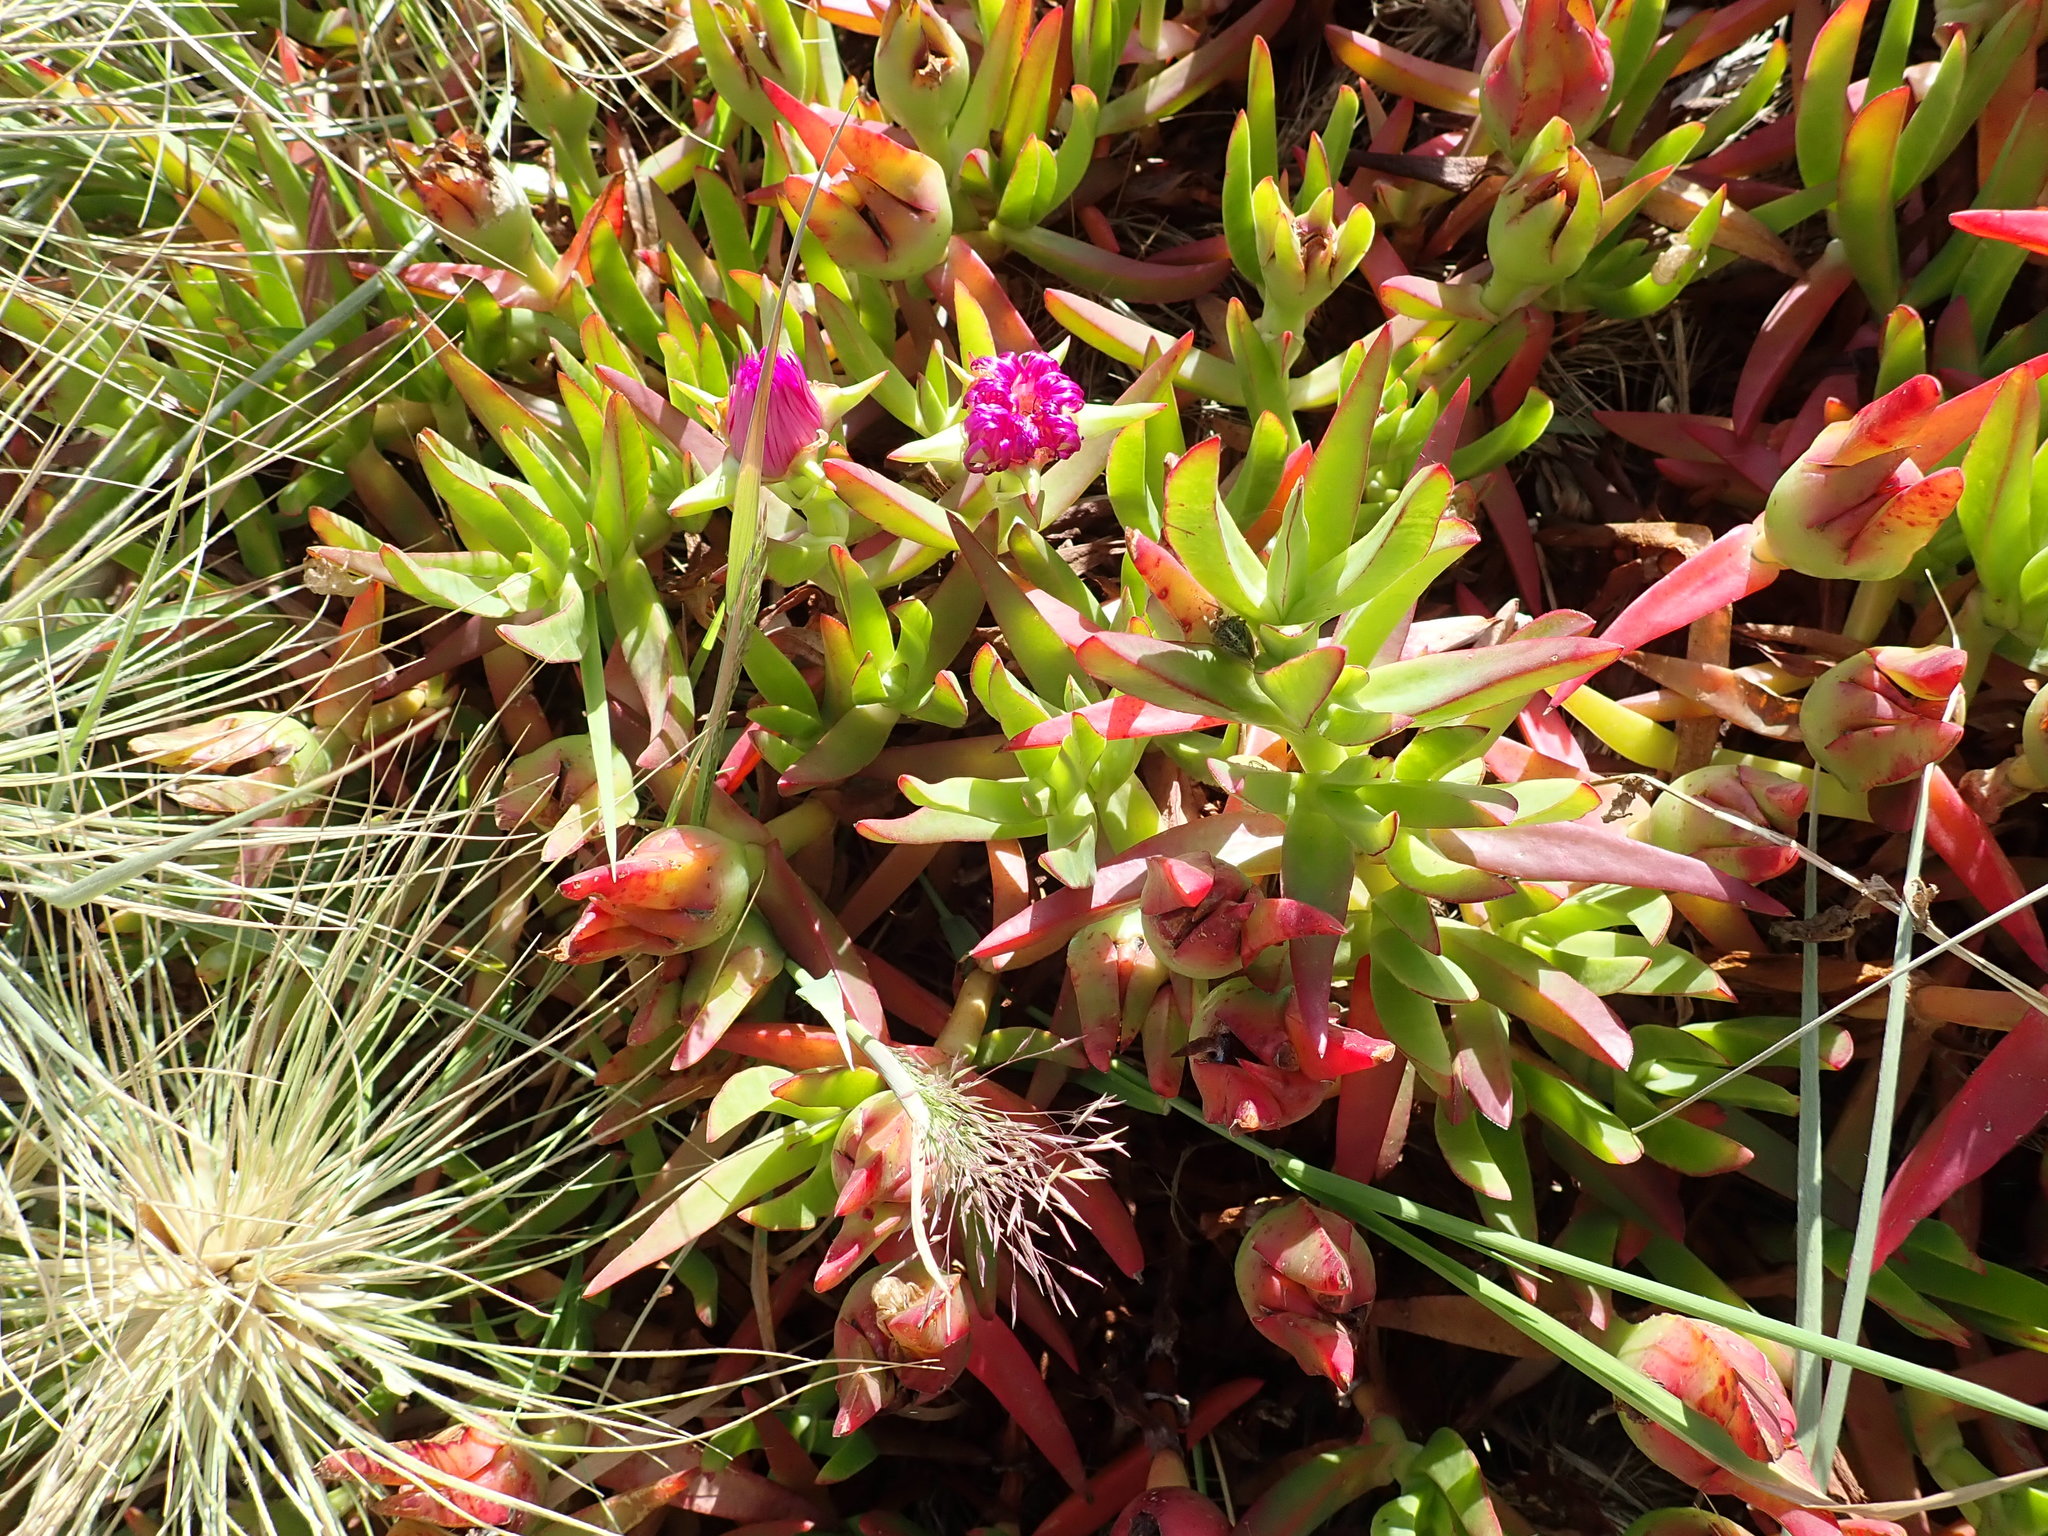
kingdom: Plantae
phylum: Tracheophyta
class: Magnoliopsida
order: Caryophyllales
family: Aizoaceae
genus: Carpobrotus
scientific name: Carpobrotus chilensis
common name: Sea fig
